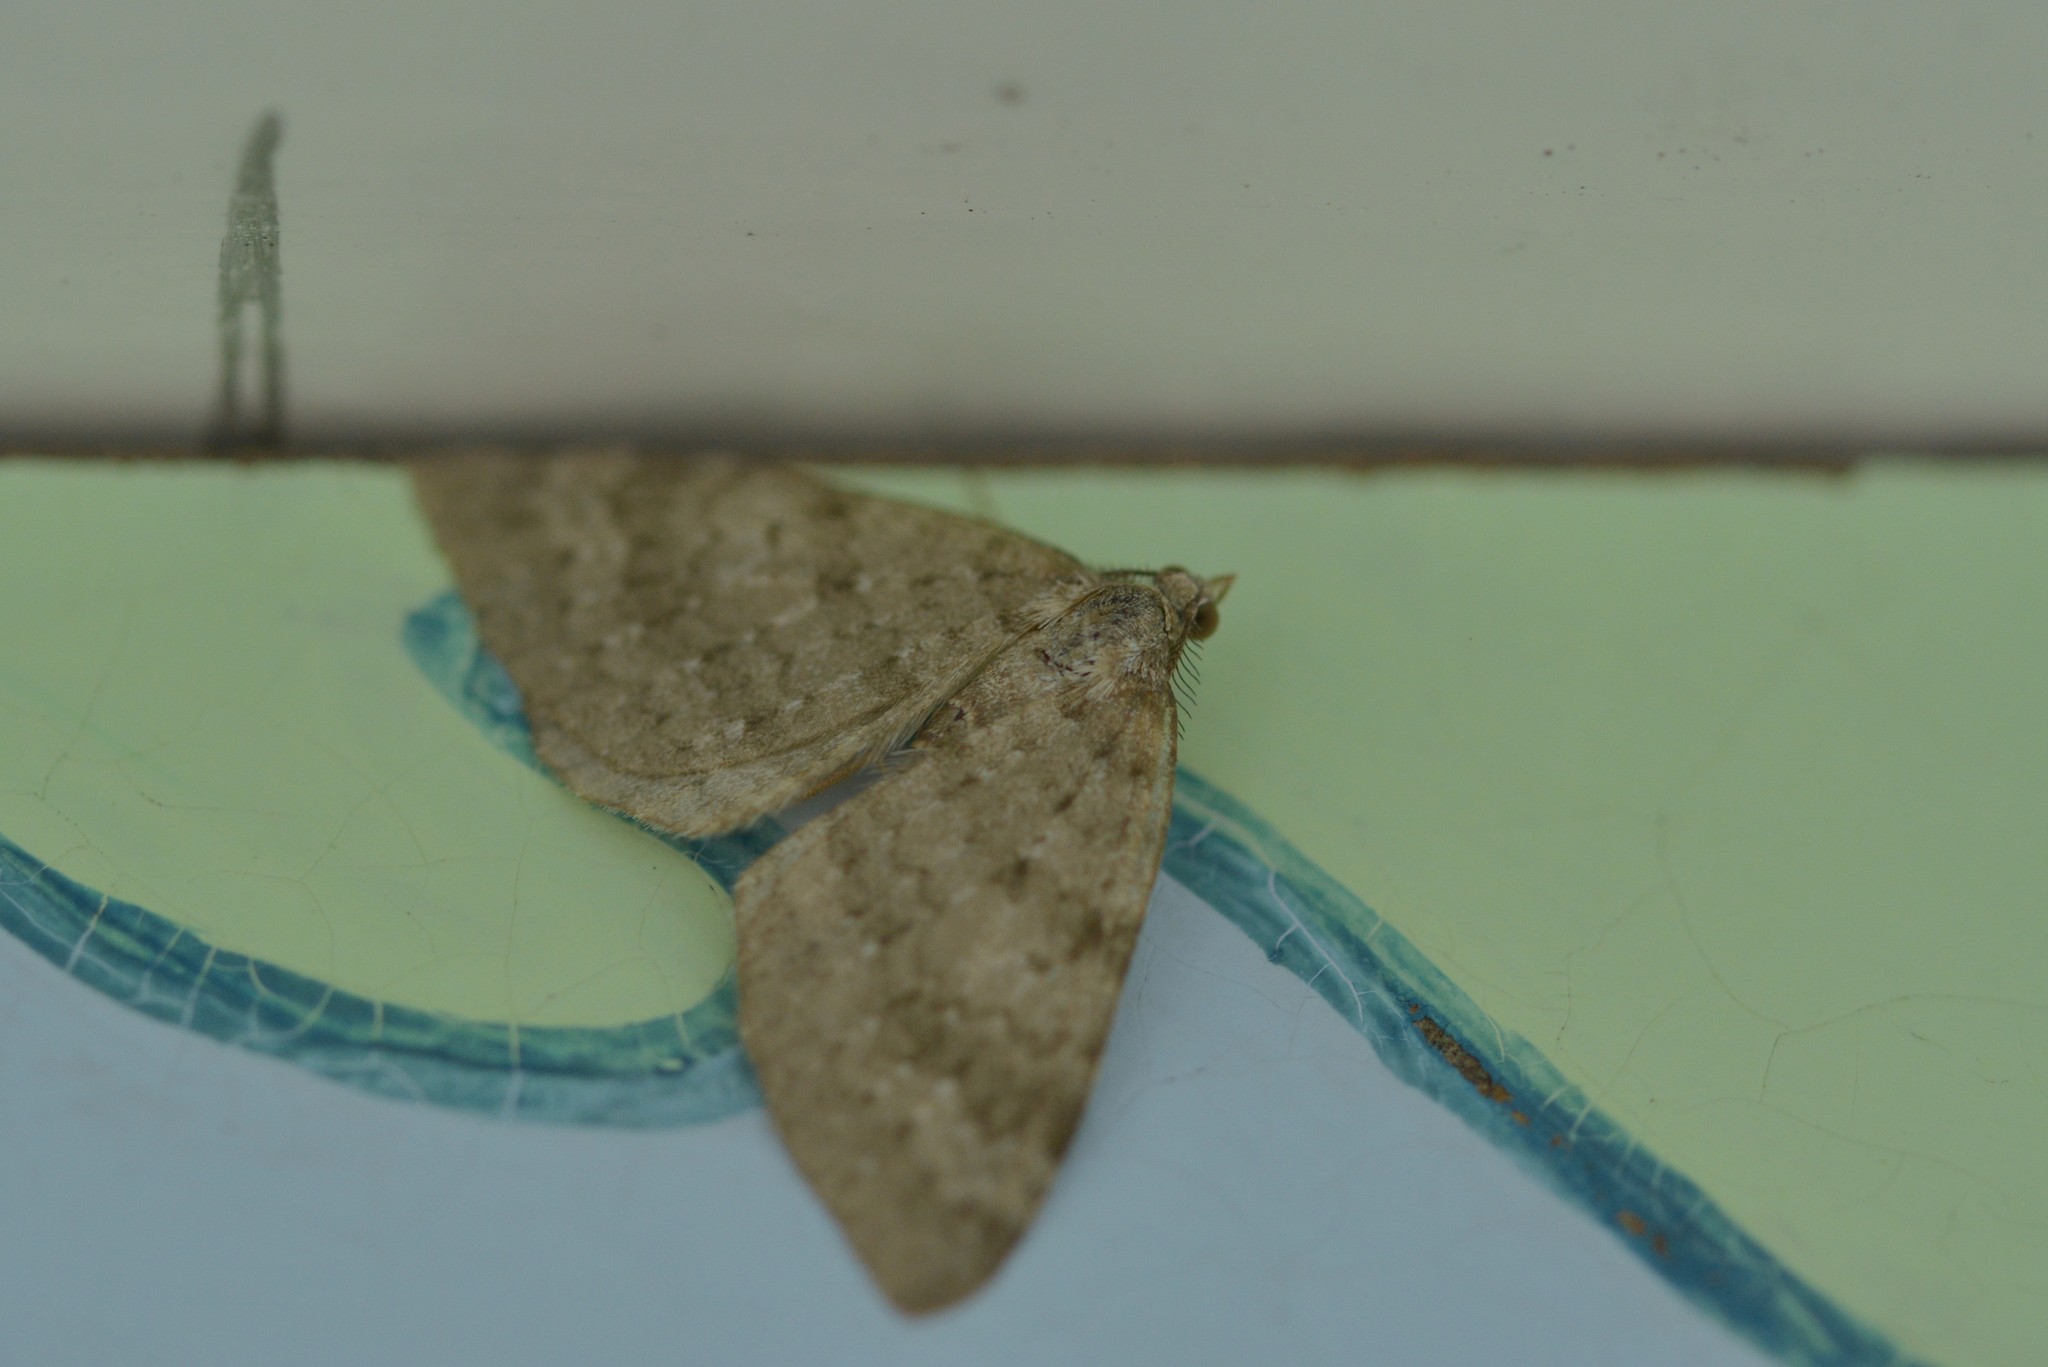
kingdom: Animalia
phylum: Arthropoda
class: Insecta
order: Lepidoptera
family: Geometridae
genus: Helastia
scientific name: Helastia corcularia
